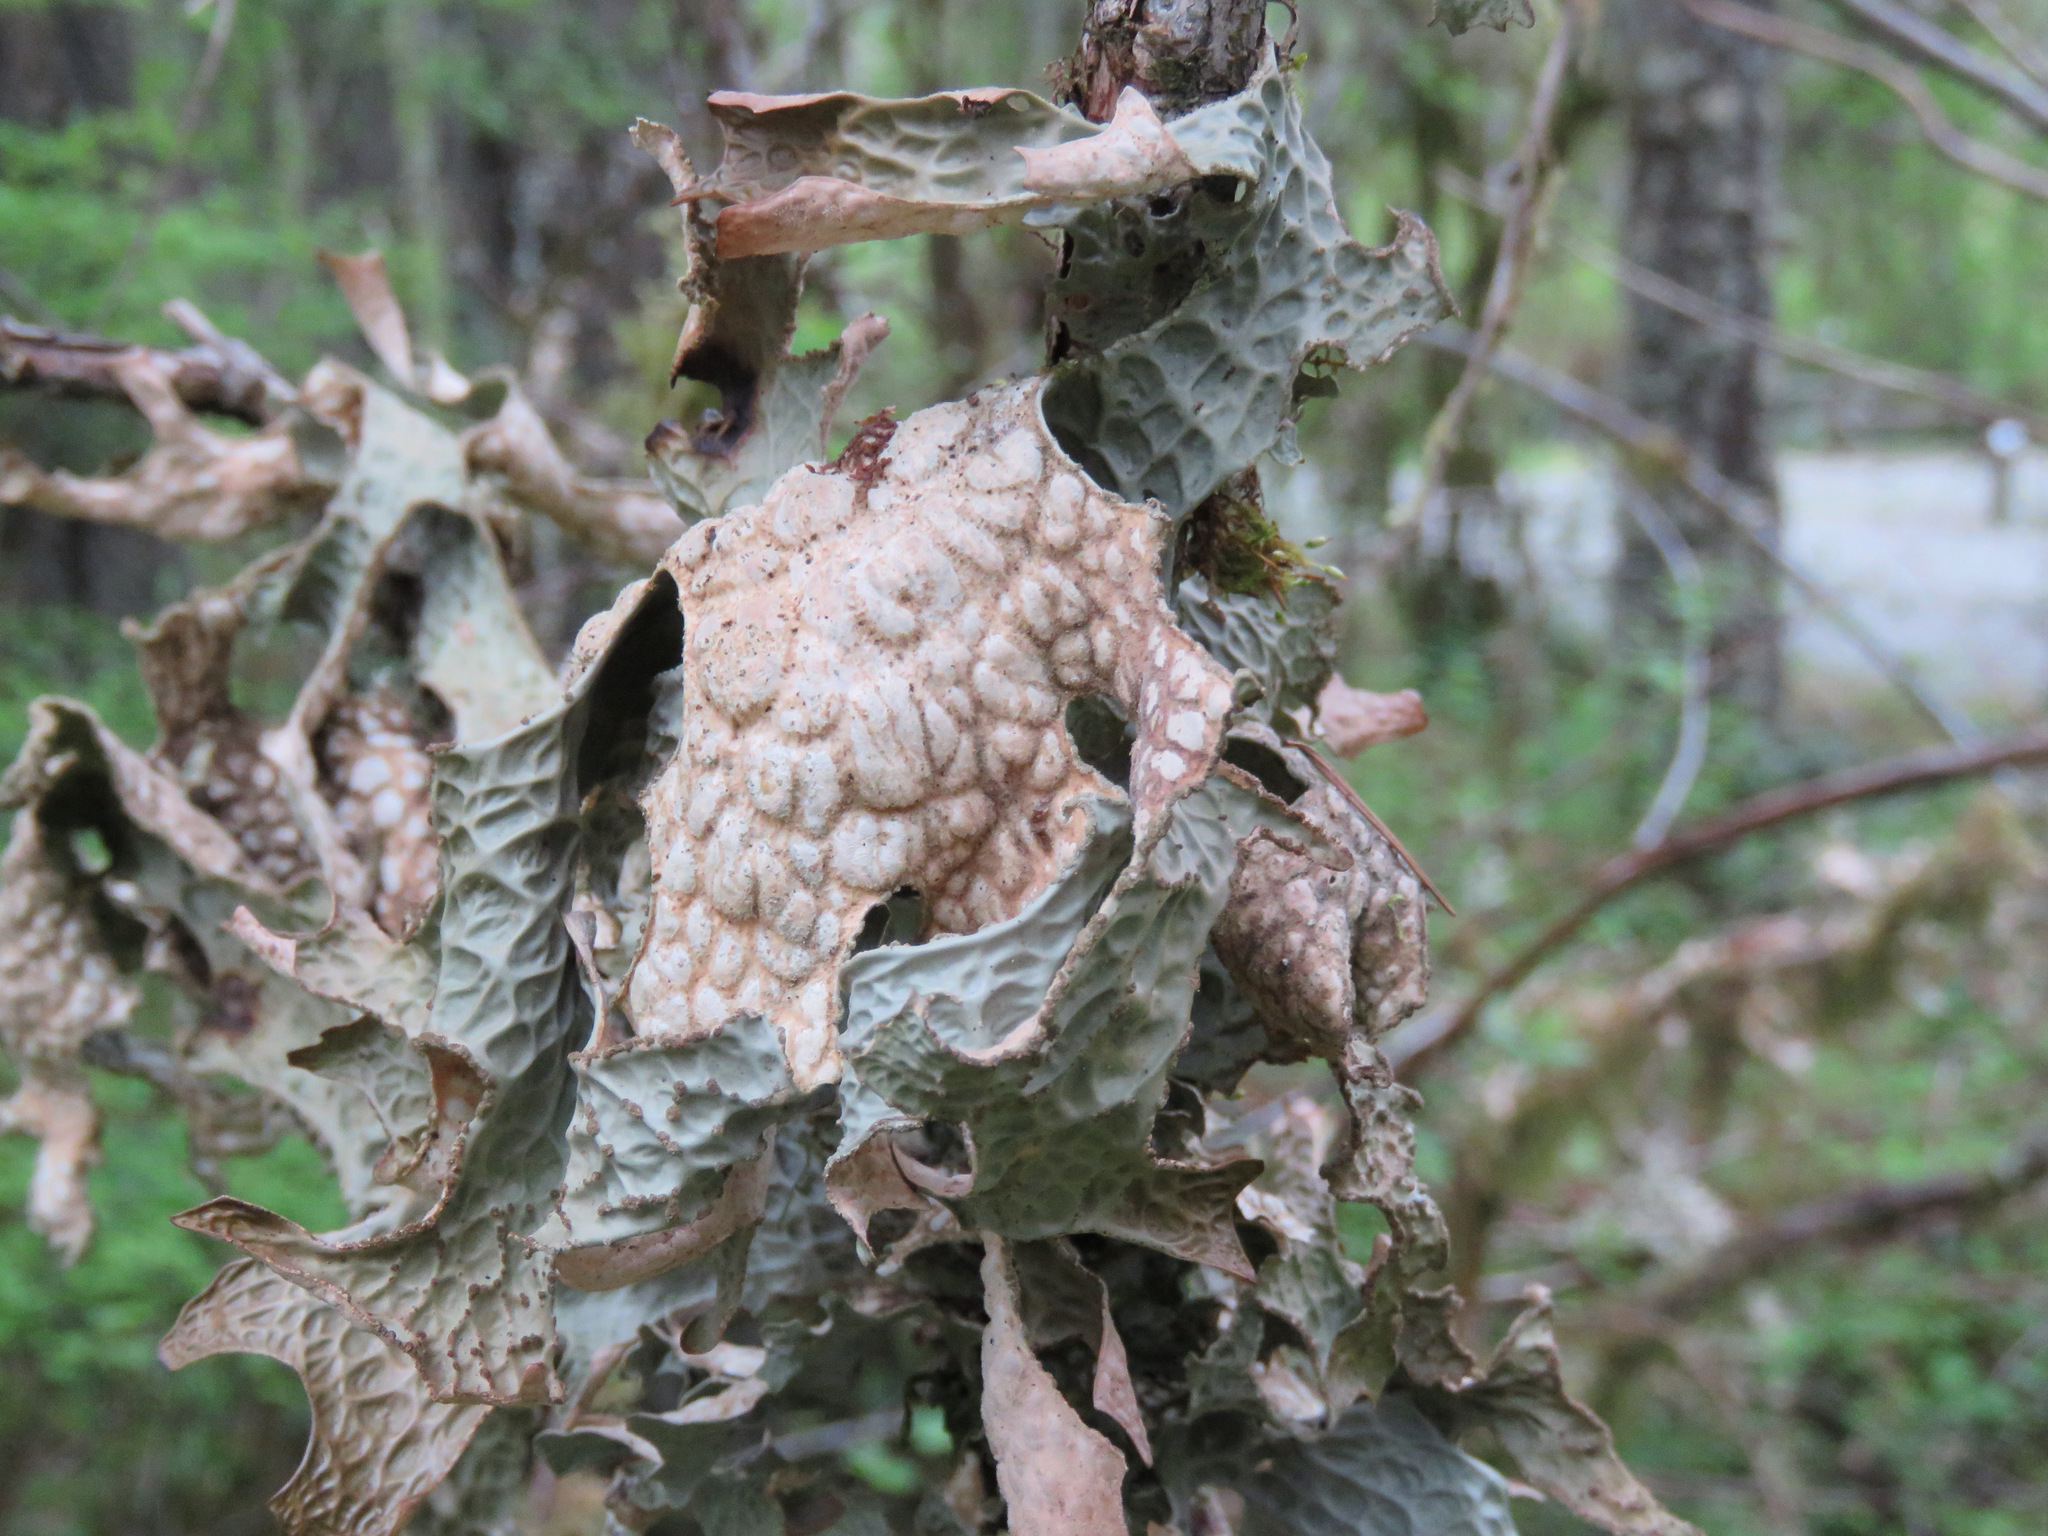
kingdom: Fungi
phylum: Ascomycota
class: Lecanoromycetes
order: Peltigerales
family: Lobariaceae
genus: Lobaria
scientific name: Lobaria pulmonaria
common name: Lungwort
